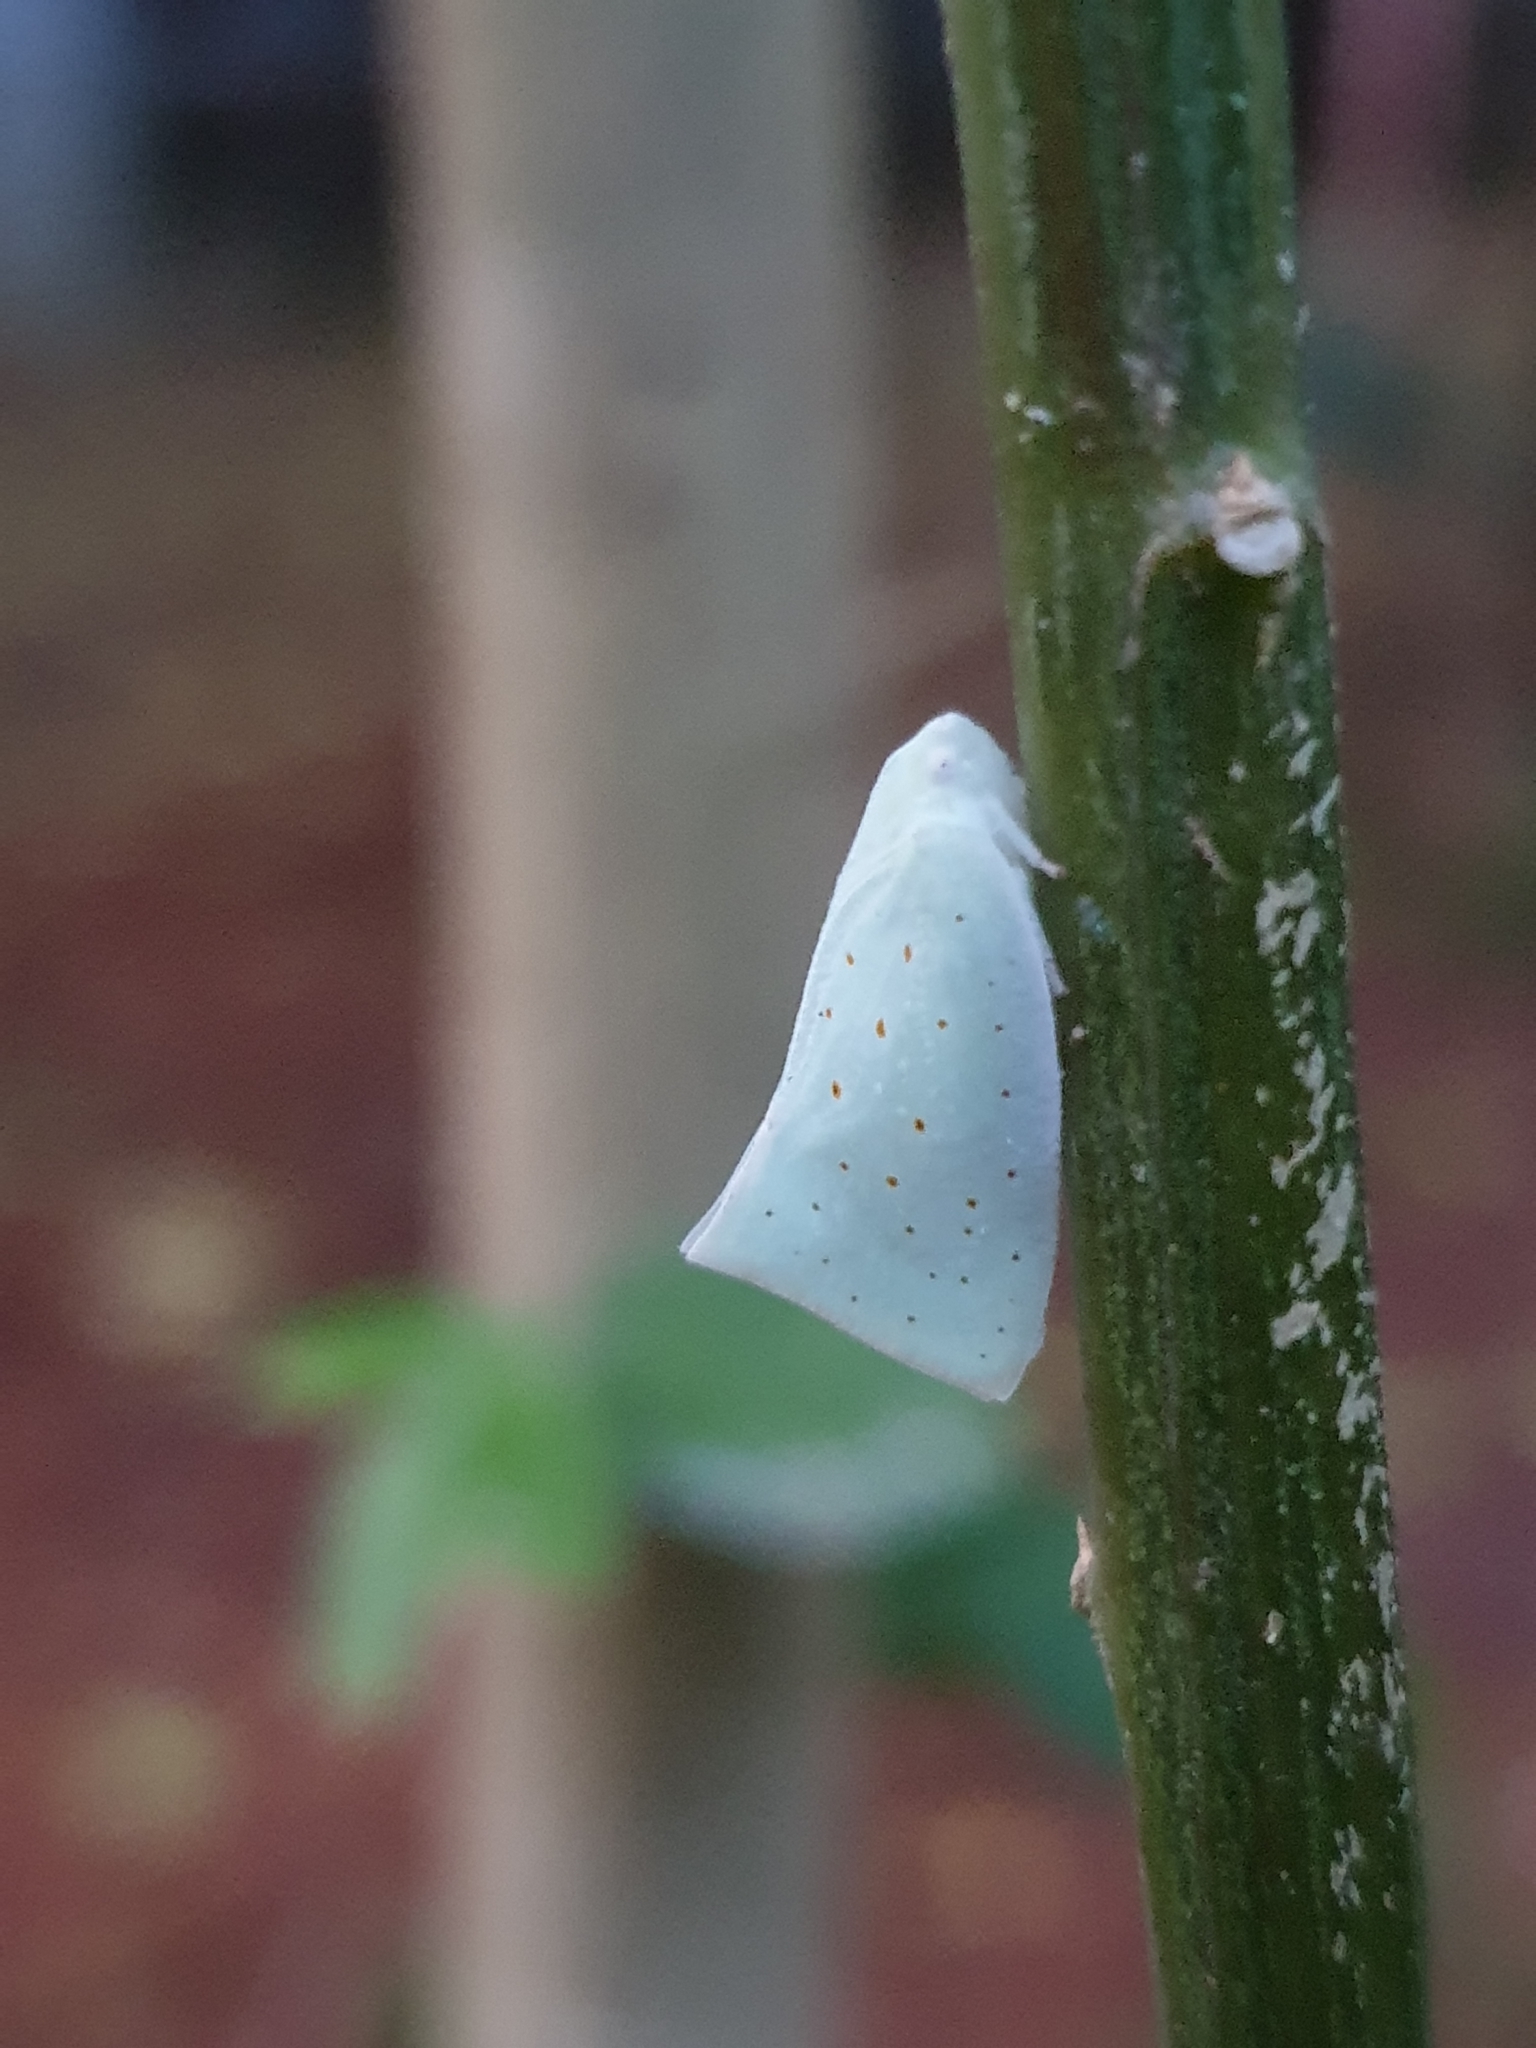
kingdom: Animalia
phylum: Arthropoda
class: Insecta
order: Hemiptera
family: Flatidae
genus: Flata
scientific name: Flata stellaris
